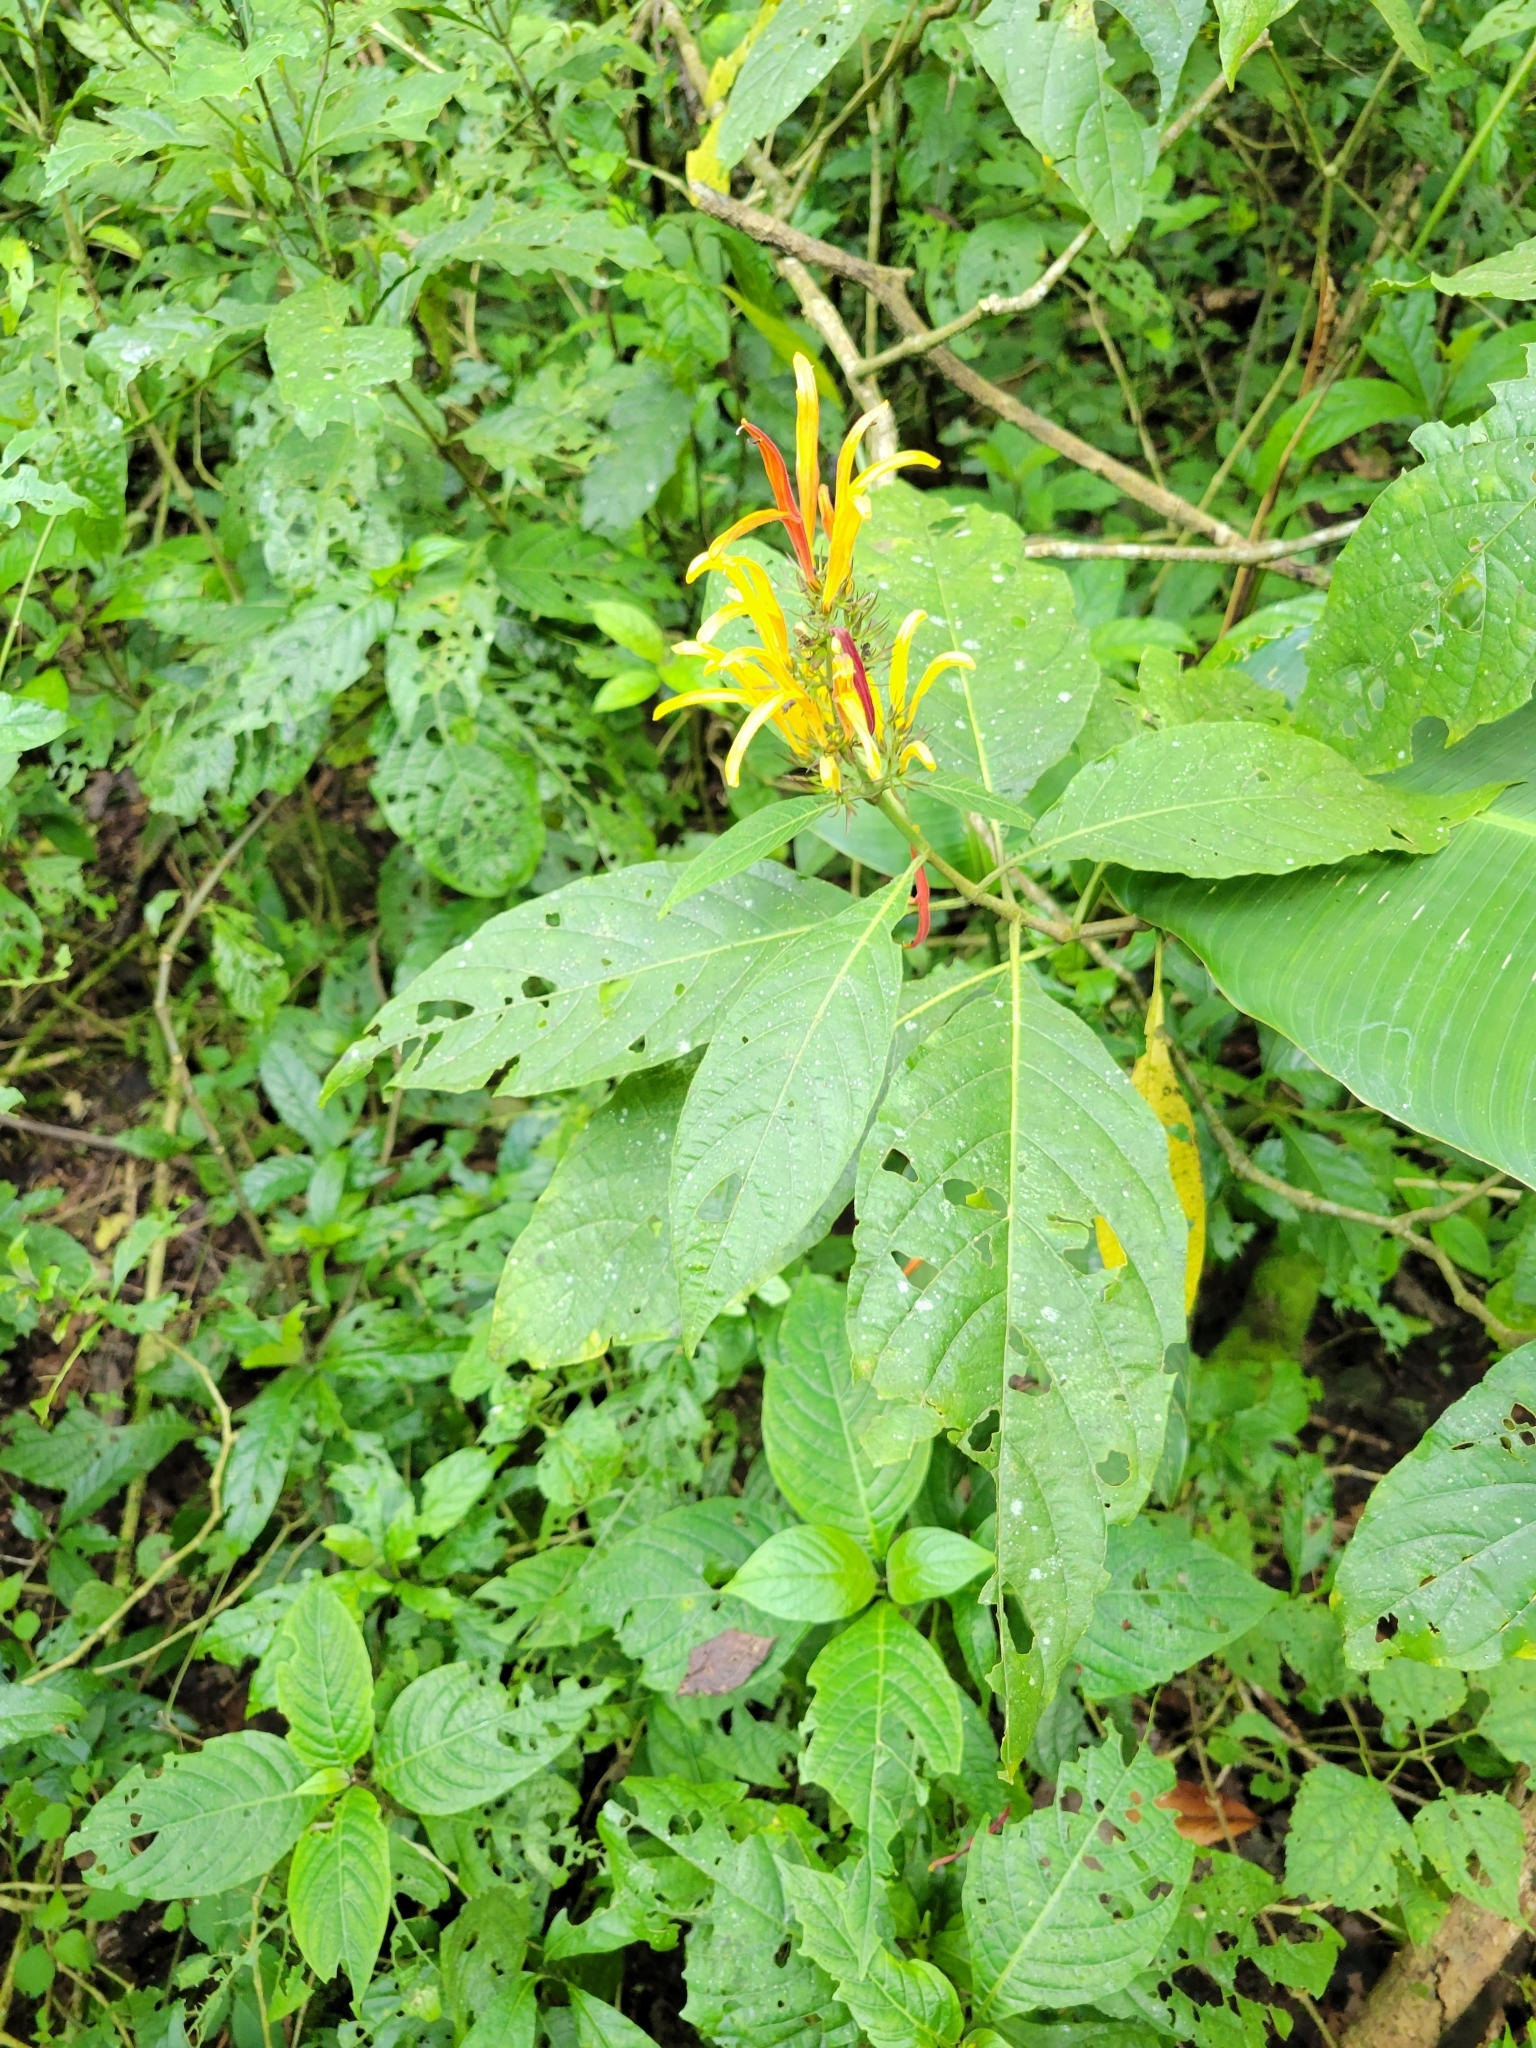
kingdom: Plantae
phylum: Tracheophyta
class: Magnoliopsida
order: Lamiales
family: Acanthaceae
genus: Justicia
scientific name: Justicia aurea
